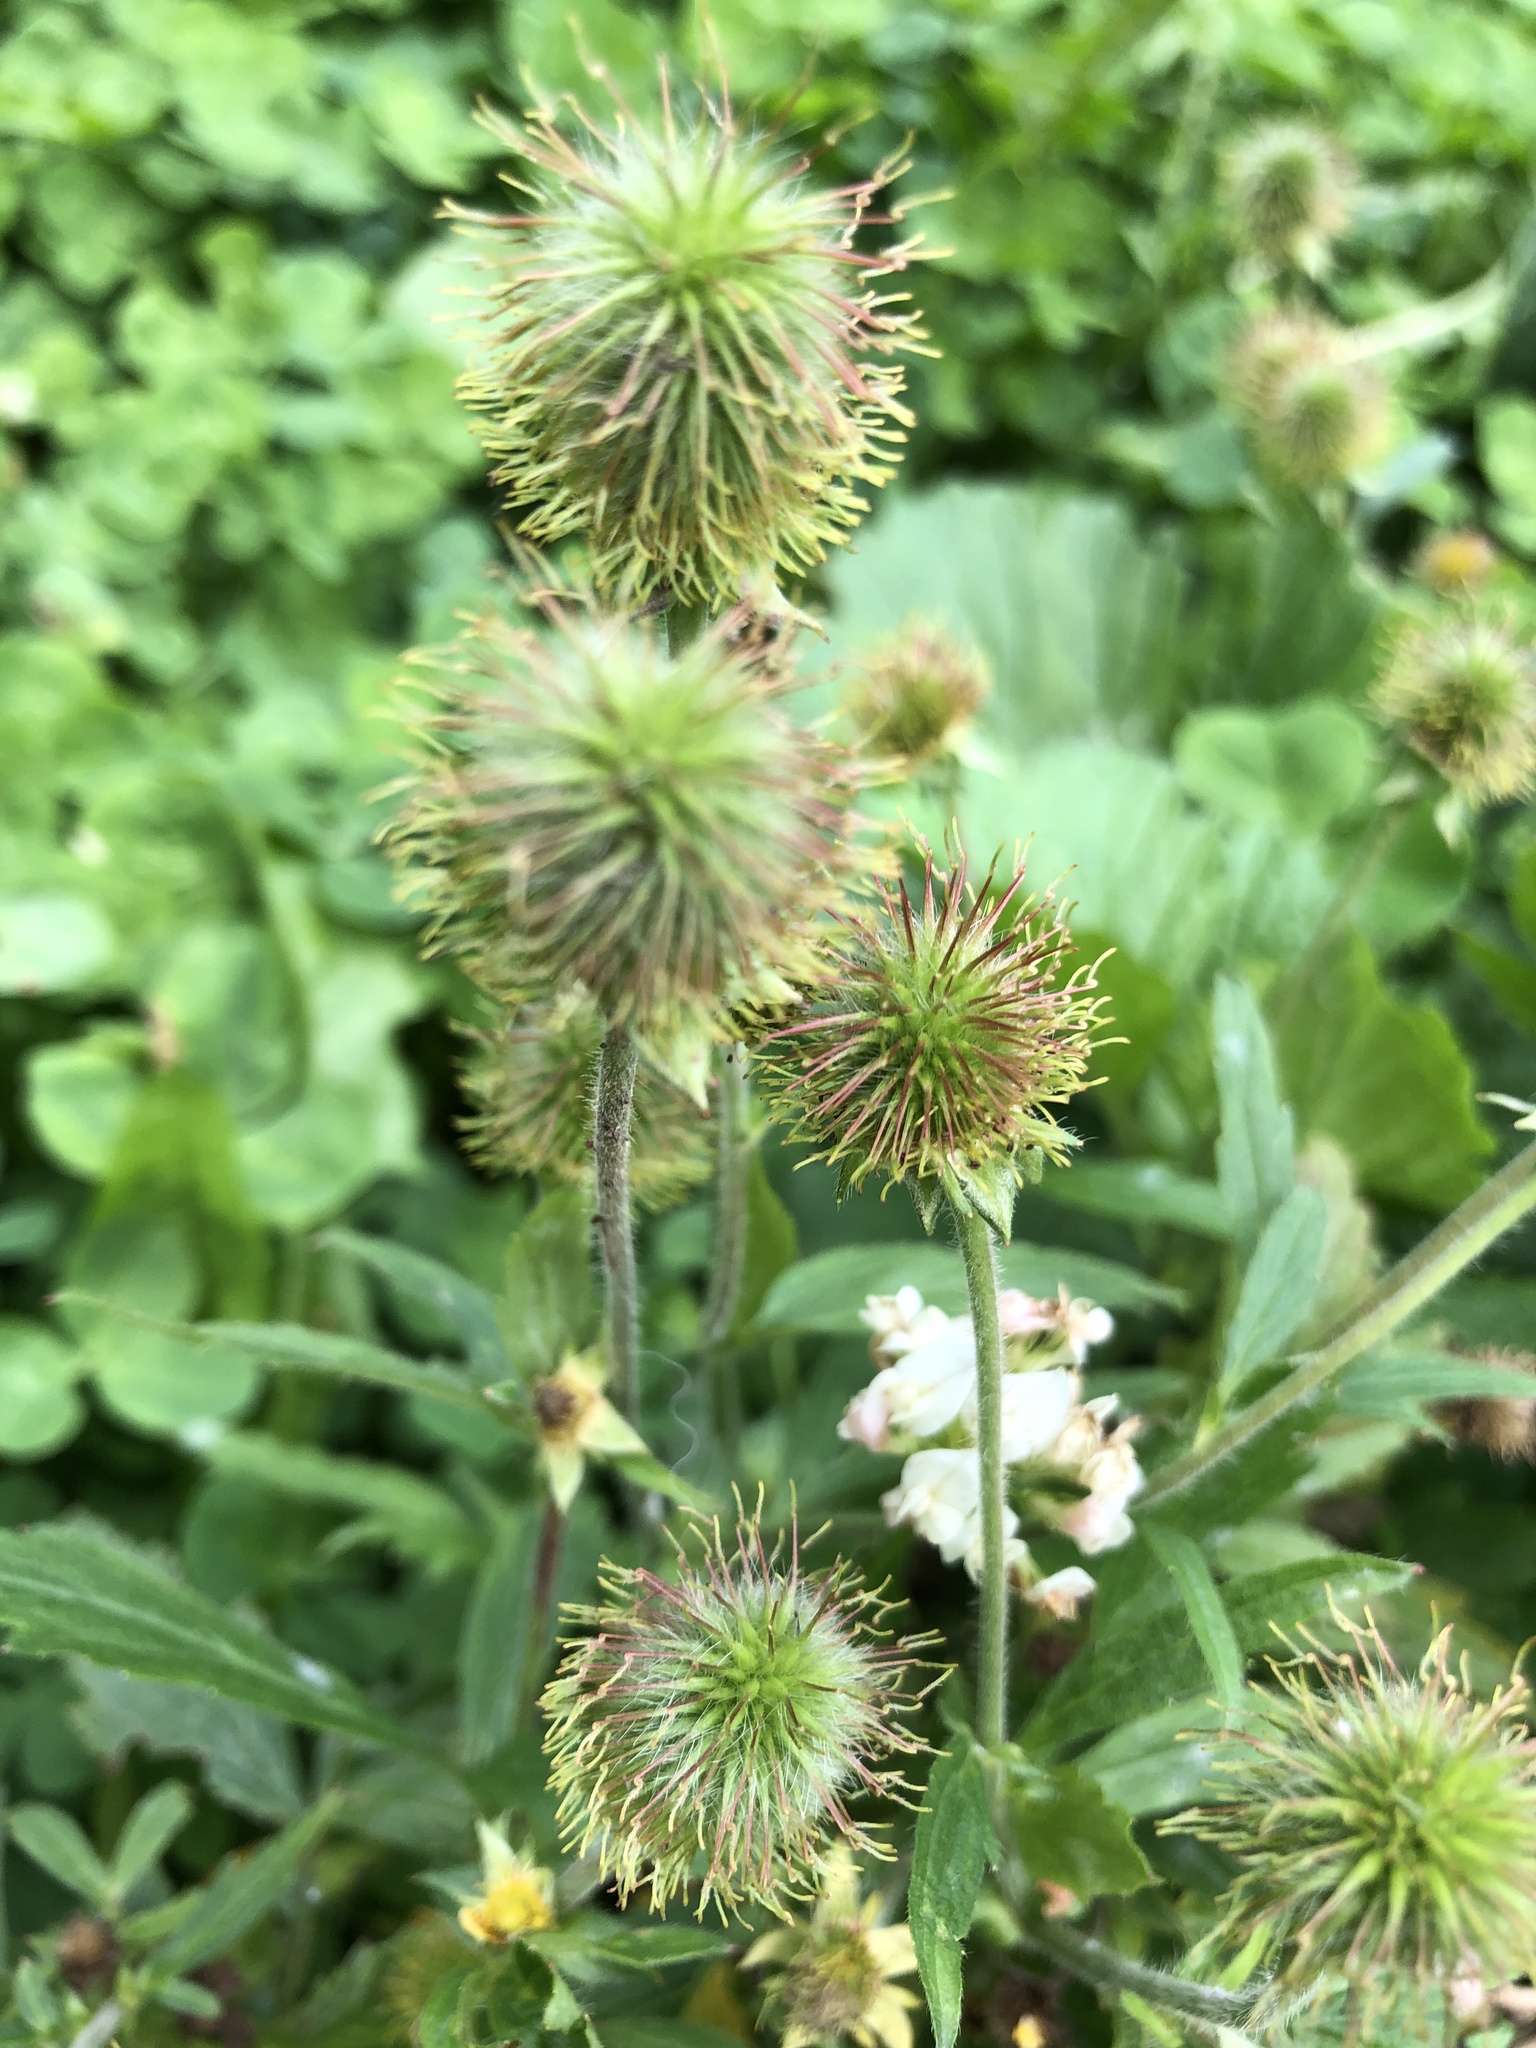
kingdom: Plantae
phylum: Tracheophyta
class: Magnoliopsida
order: Rosales
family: Rosaceae
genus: Geum
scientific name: Geum aleppicum
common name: Yellow avens
